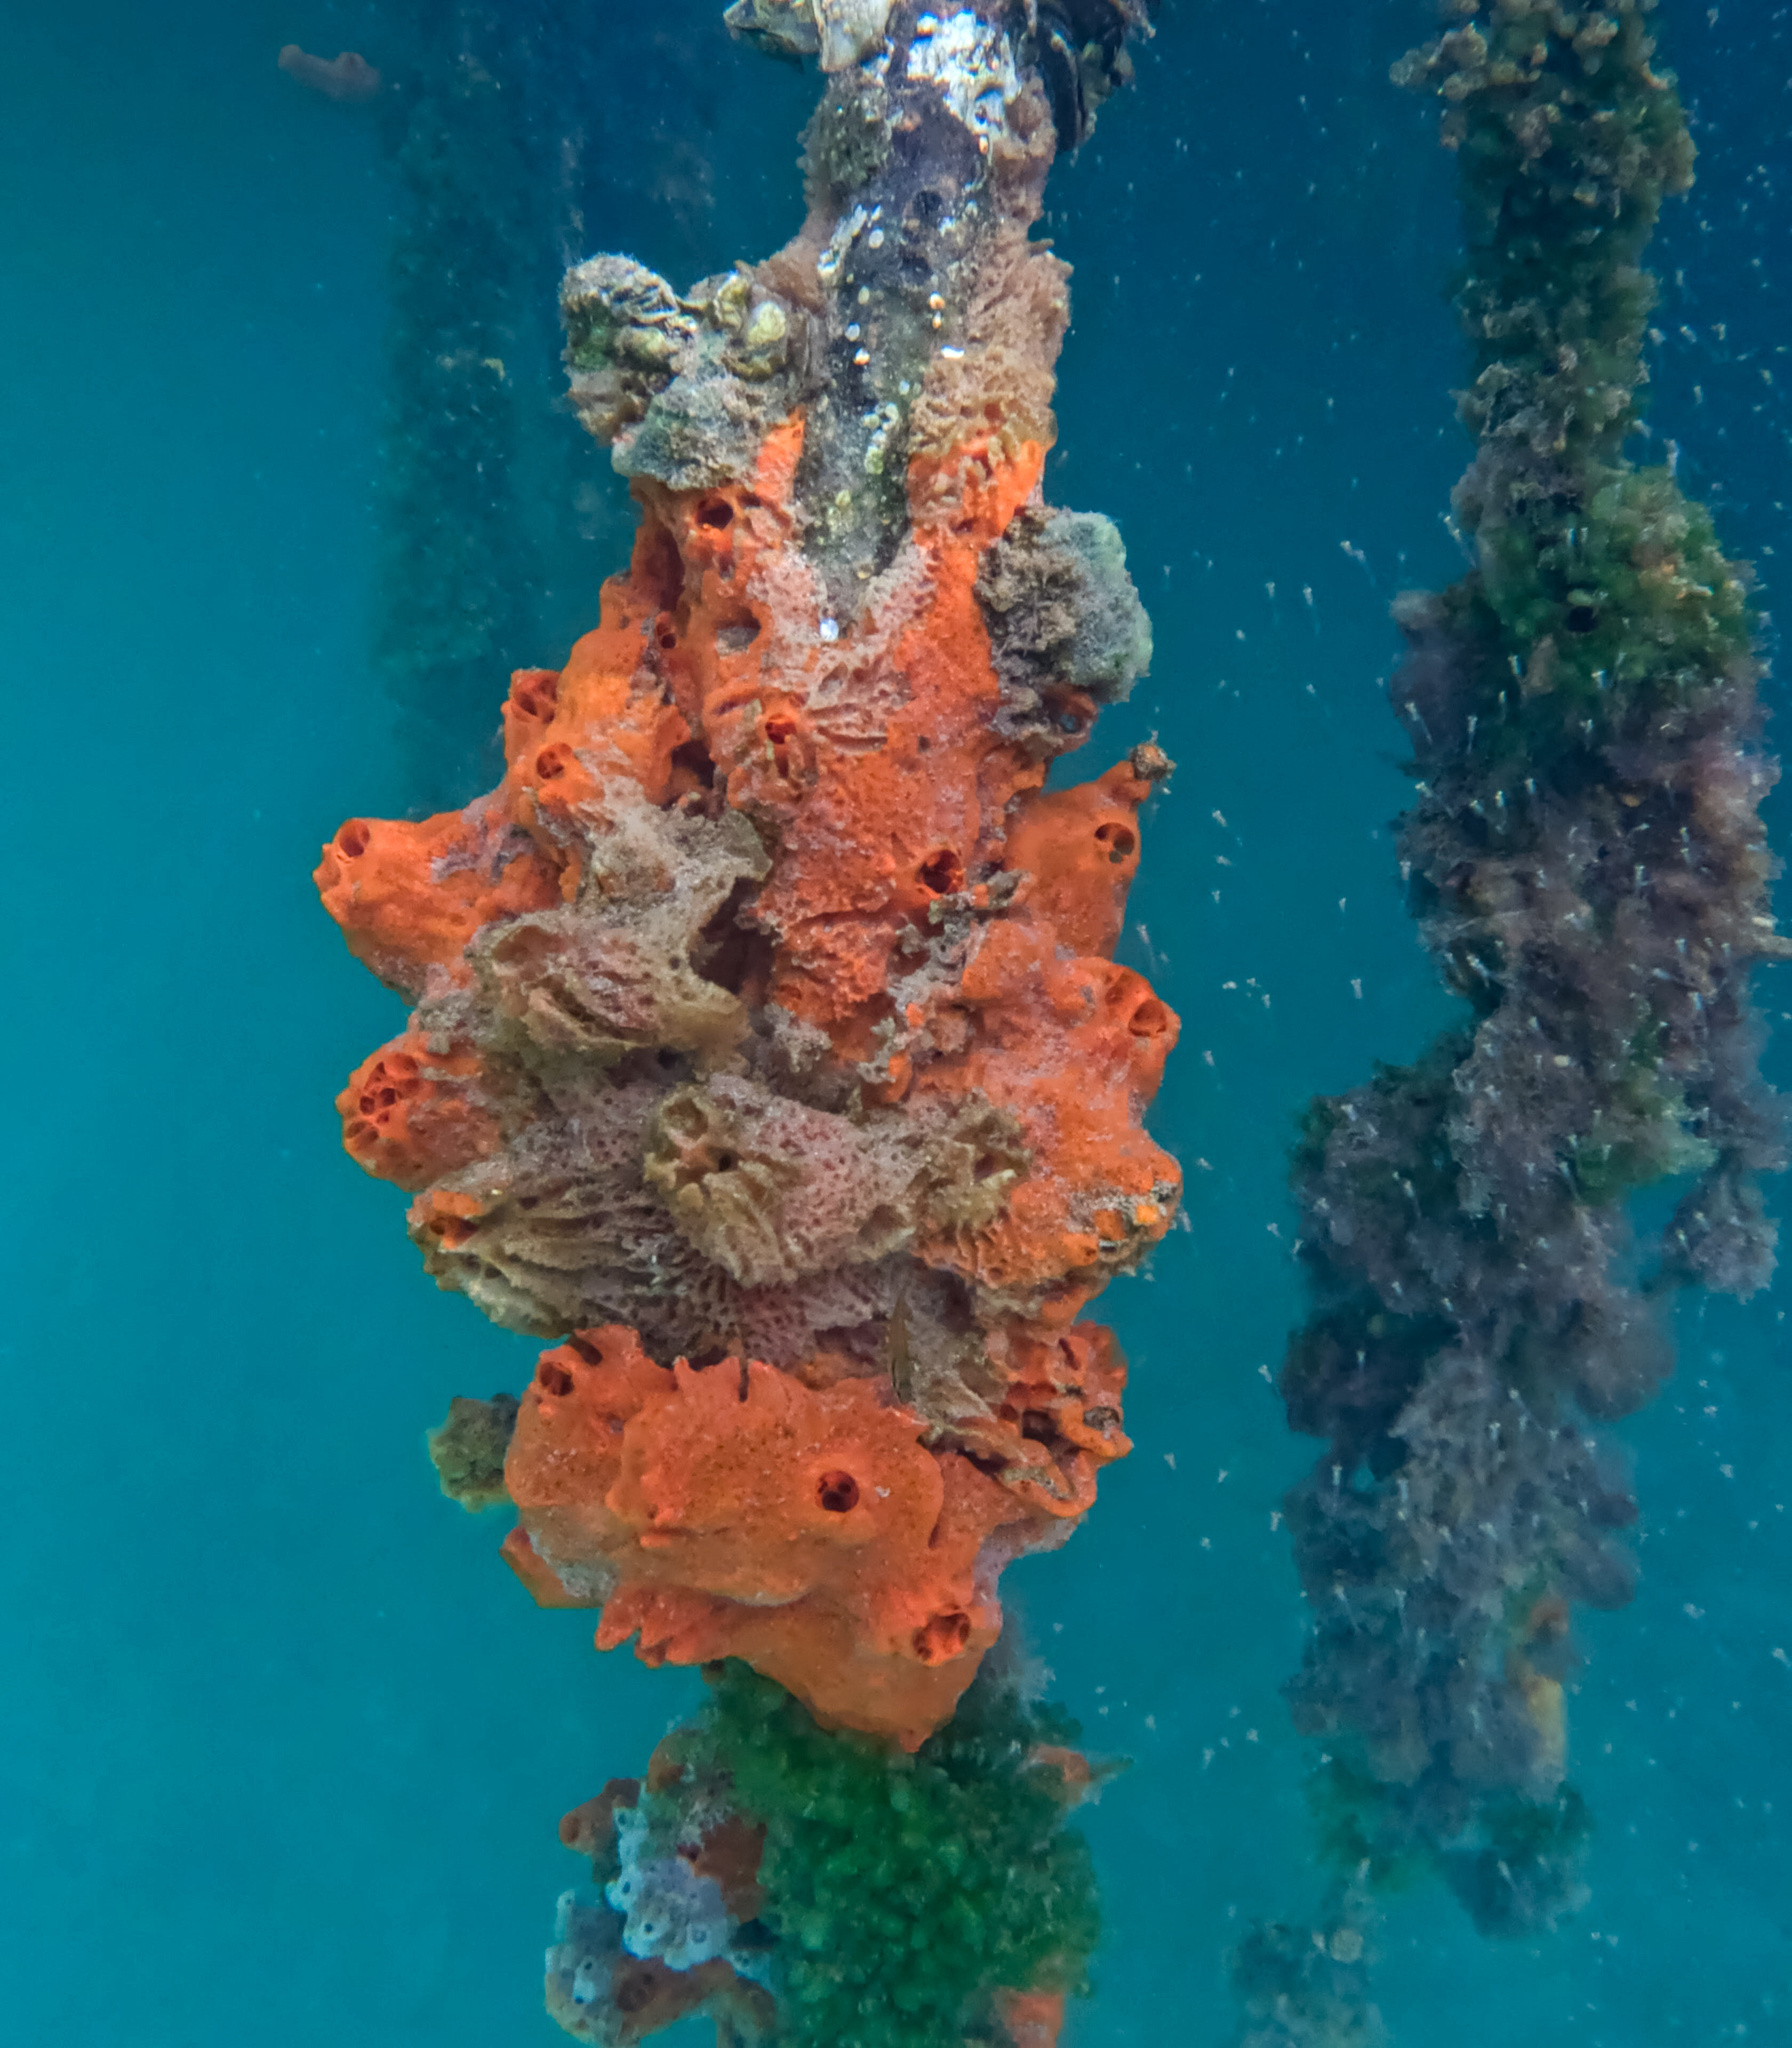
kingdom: Animalia
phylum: Porifera
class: Demospongiae
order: Poecilosclerida
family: Tedaniidae
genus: Tedania
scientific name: Tedania ignis
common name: Sponge
